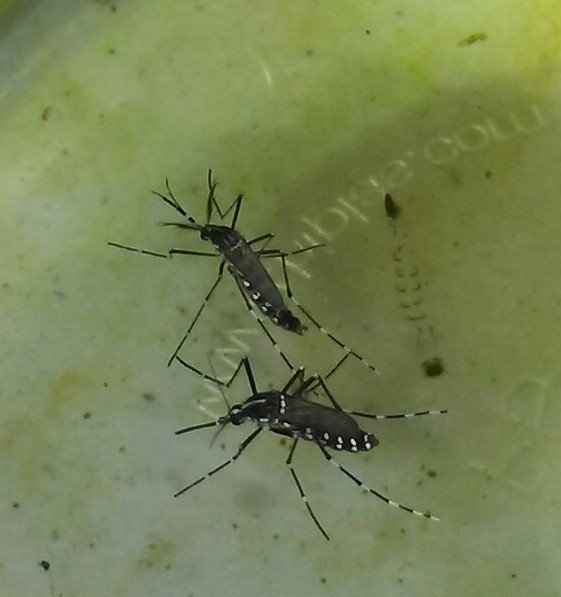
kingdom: Animalia
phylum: Arthropoda
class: Insecta
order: Diptera
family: Culicidae
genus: Aedes
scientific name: Aedes albopictus
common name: Tiger mosquito
